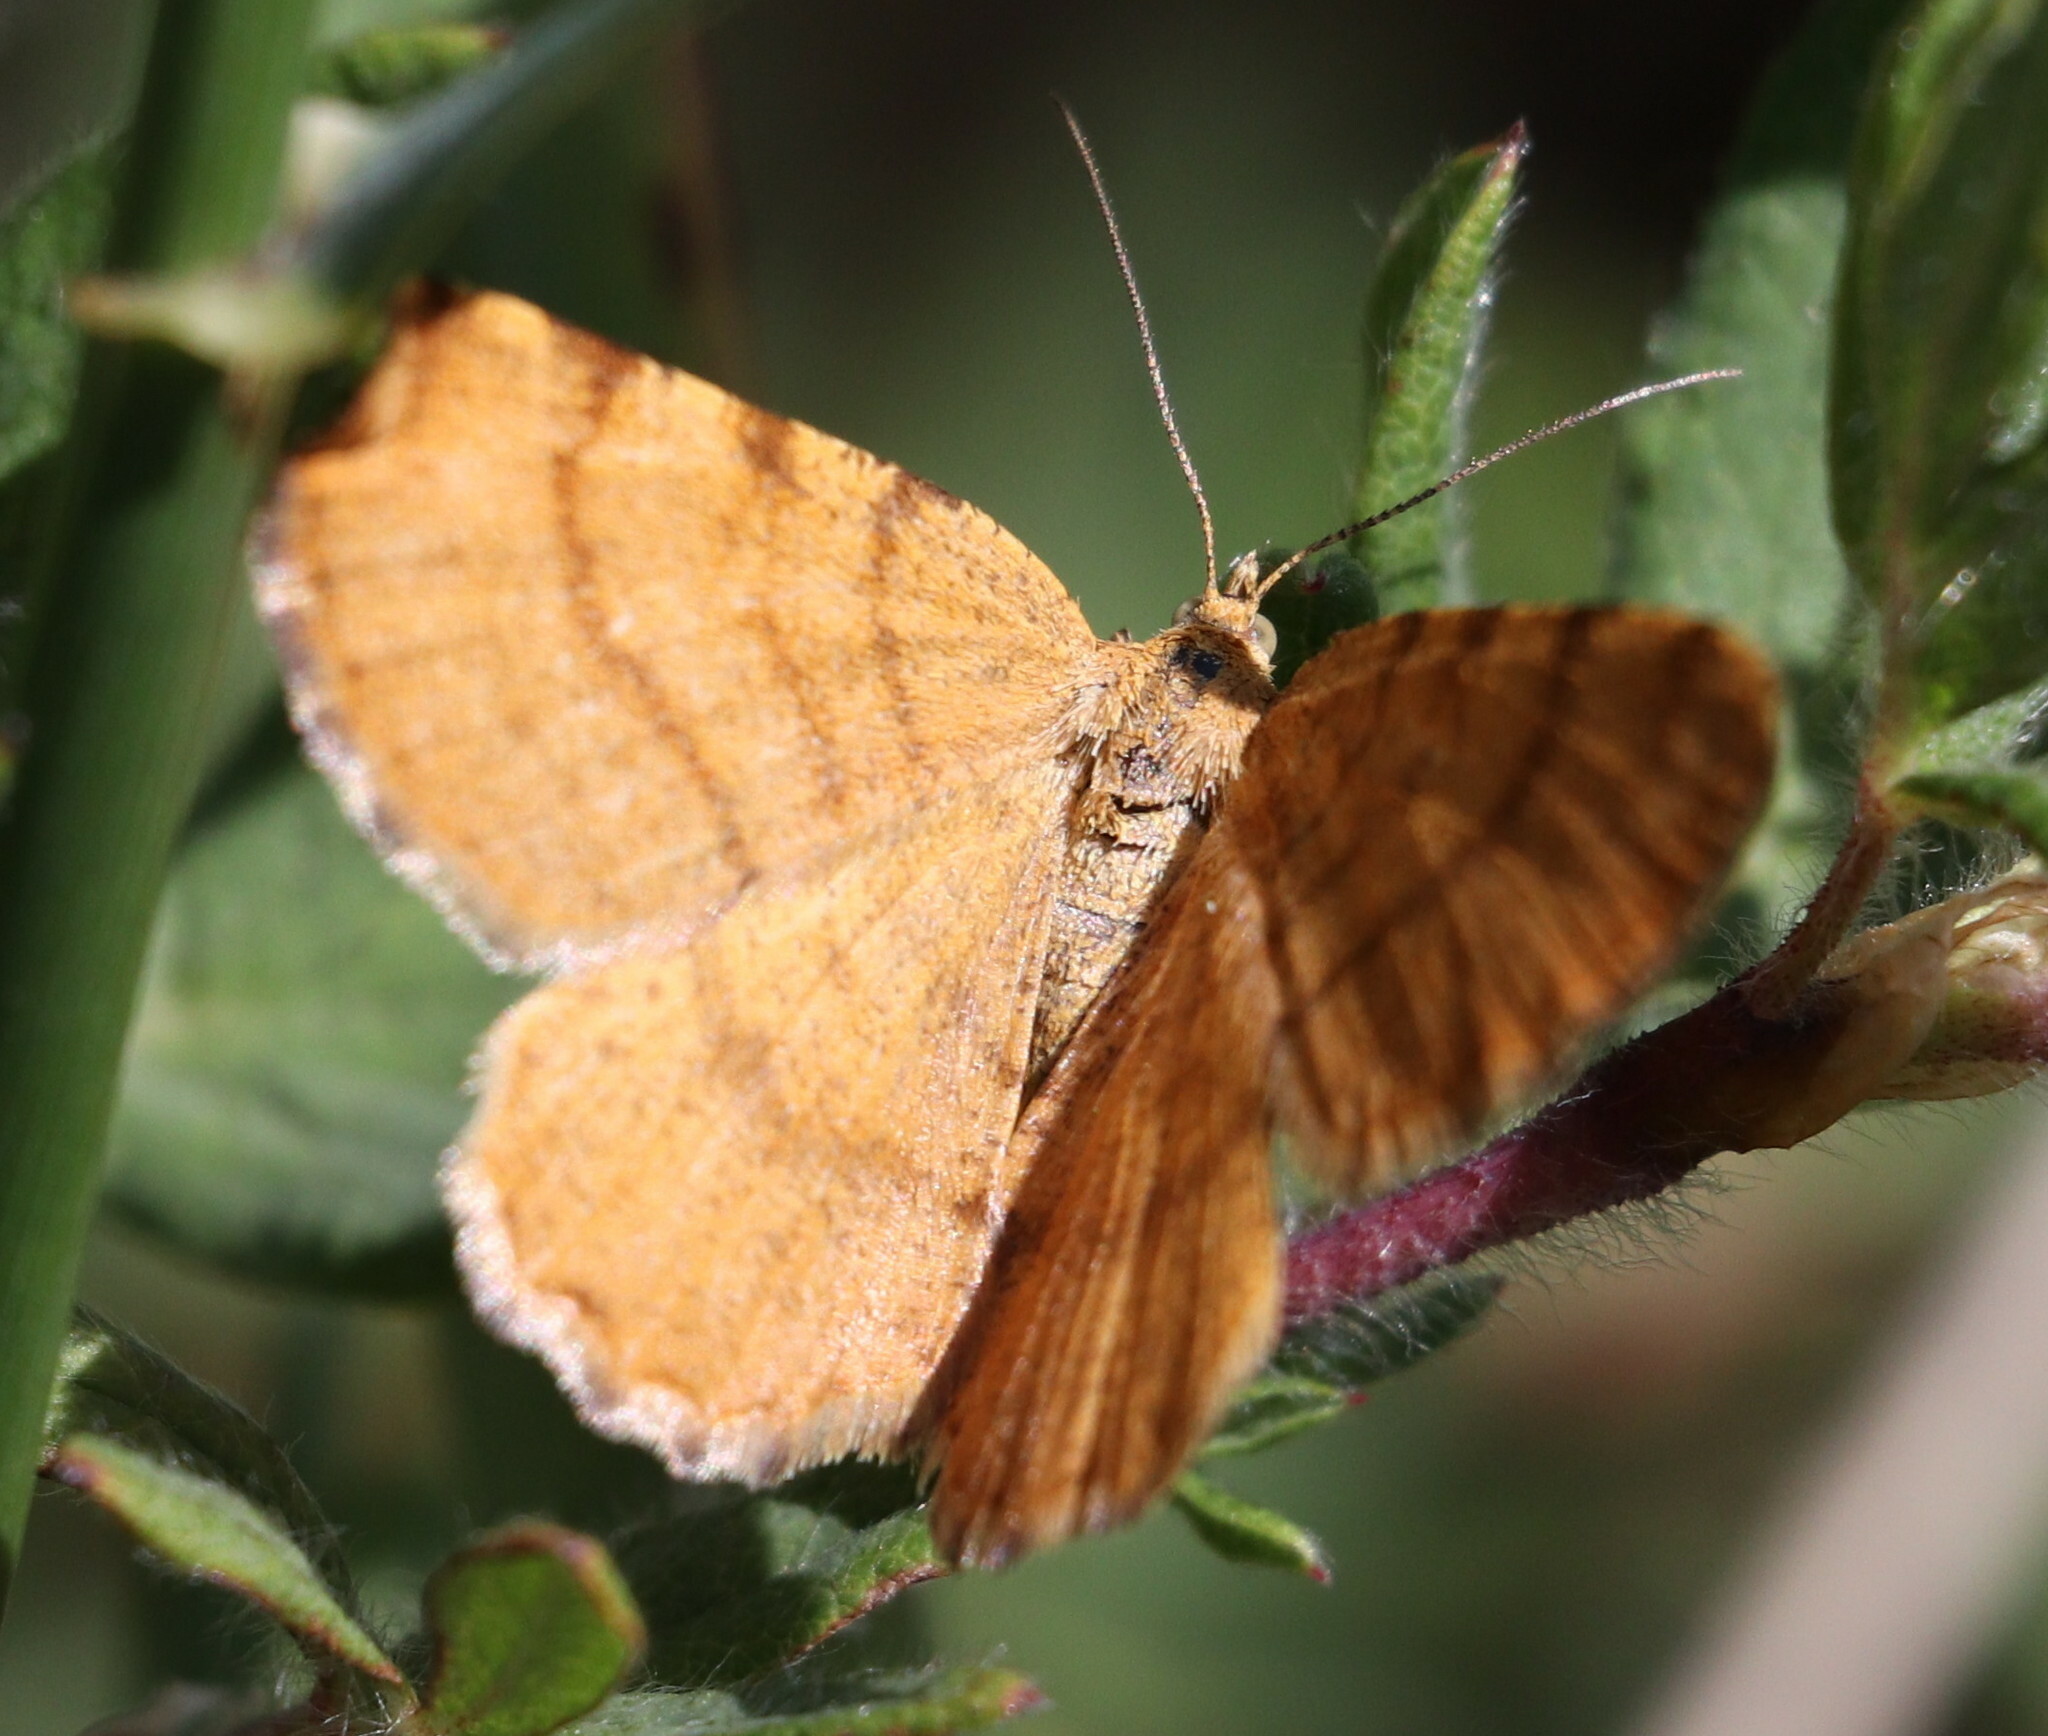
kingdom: Animalia
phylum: Arthropoda
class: Insecta
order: Lepidoptera
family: Geometridae
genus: Macaria
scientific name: Macaria brunneata
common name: Rannoch looper
